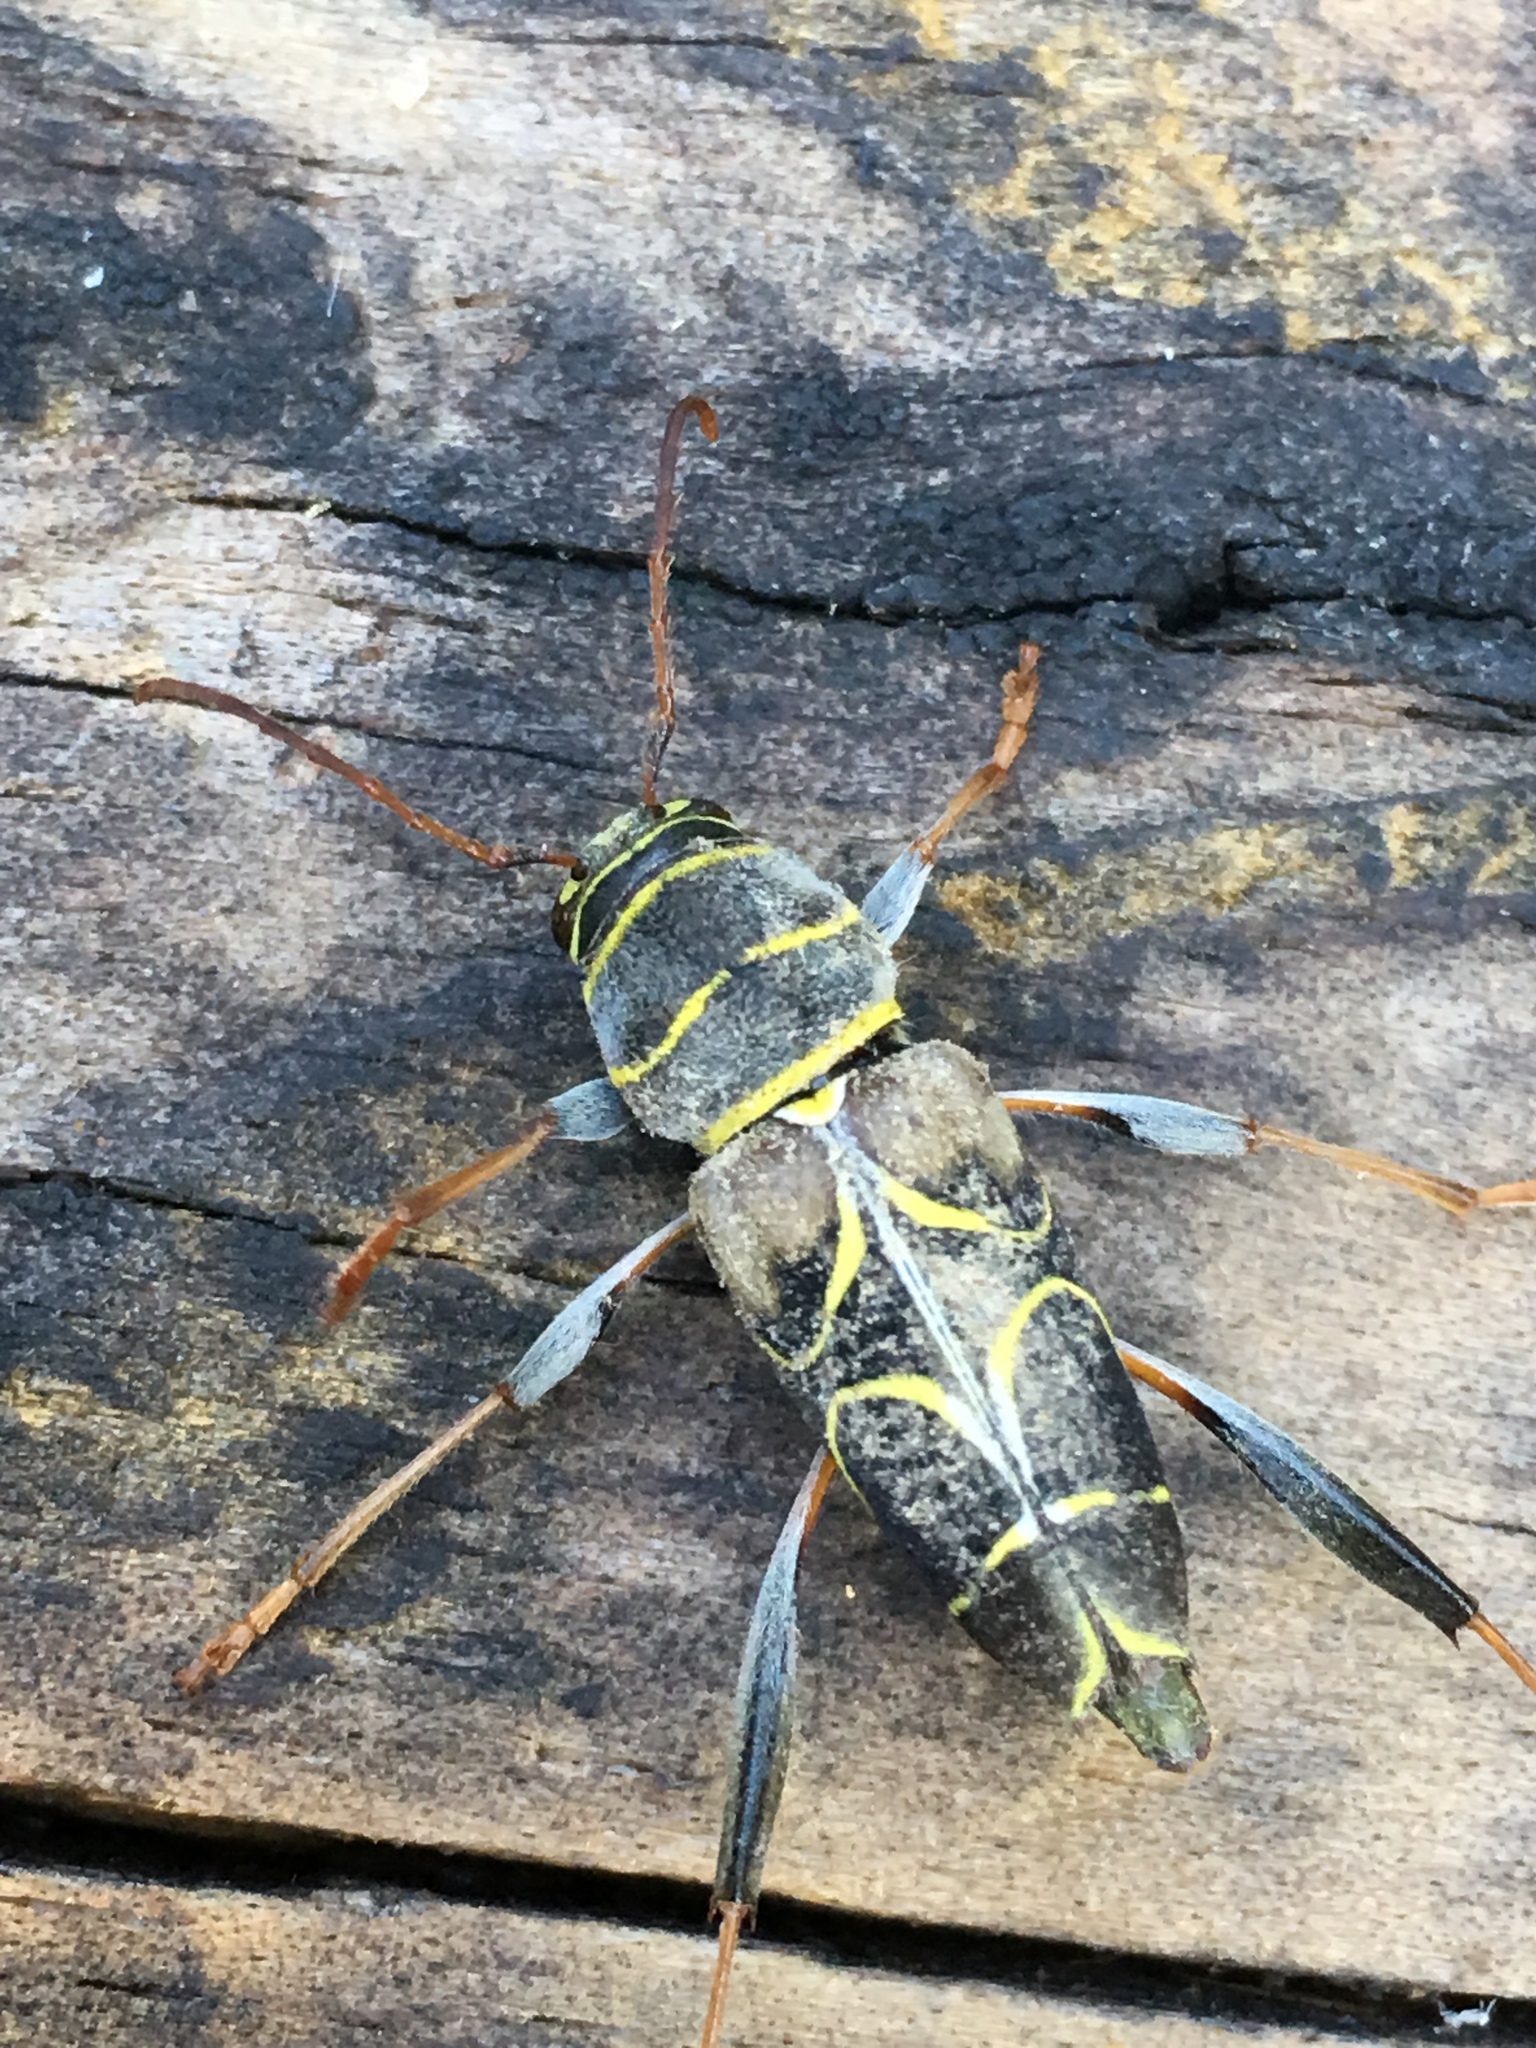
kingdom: Animalia
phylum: Arthropoda
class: Insecta
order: Coleoptera
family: Cerambycidae
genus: Neoclytus
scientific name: Neoclytus scutellaris
